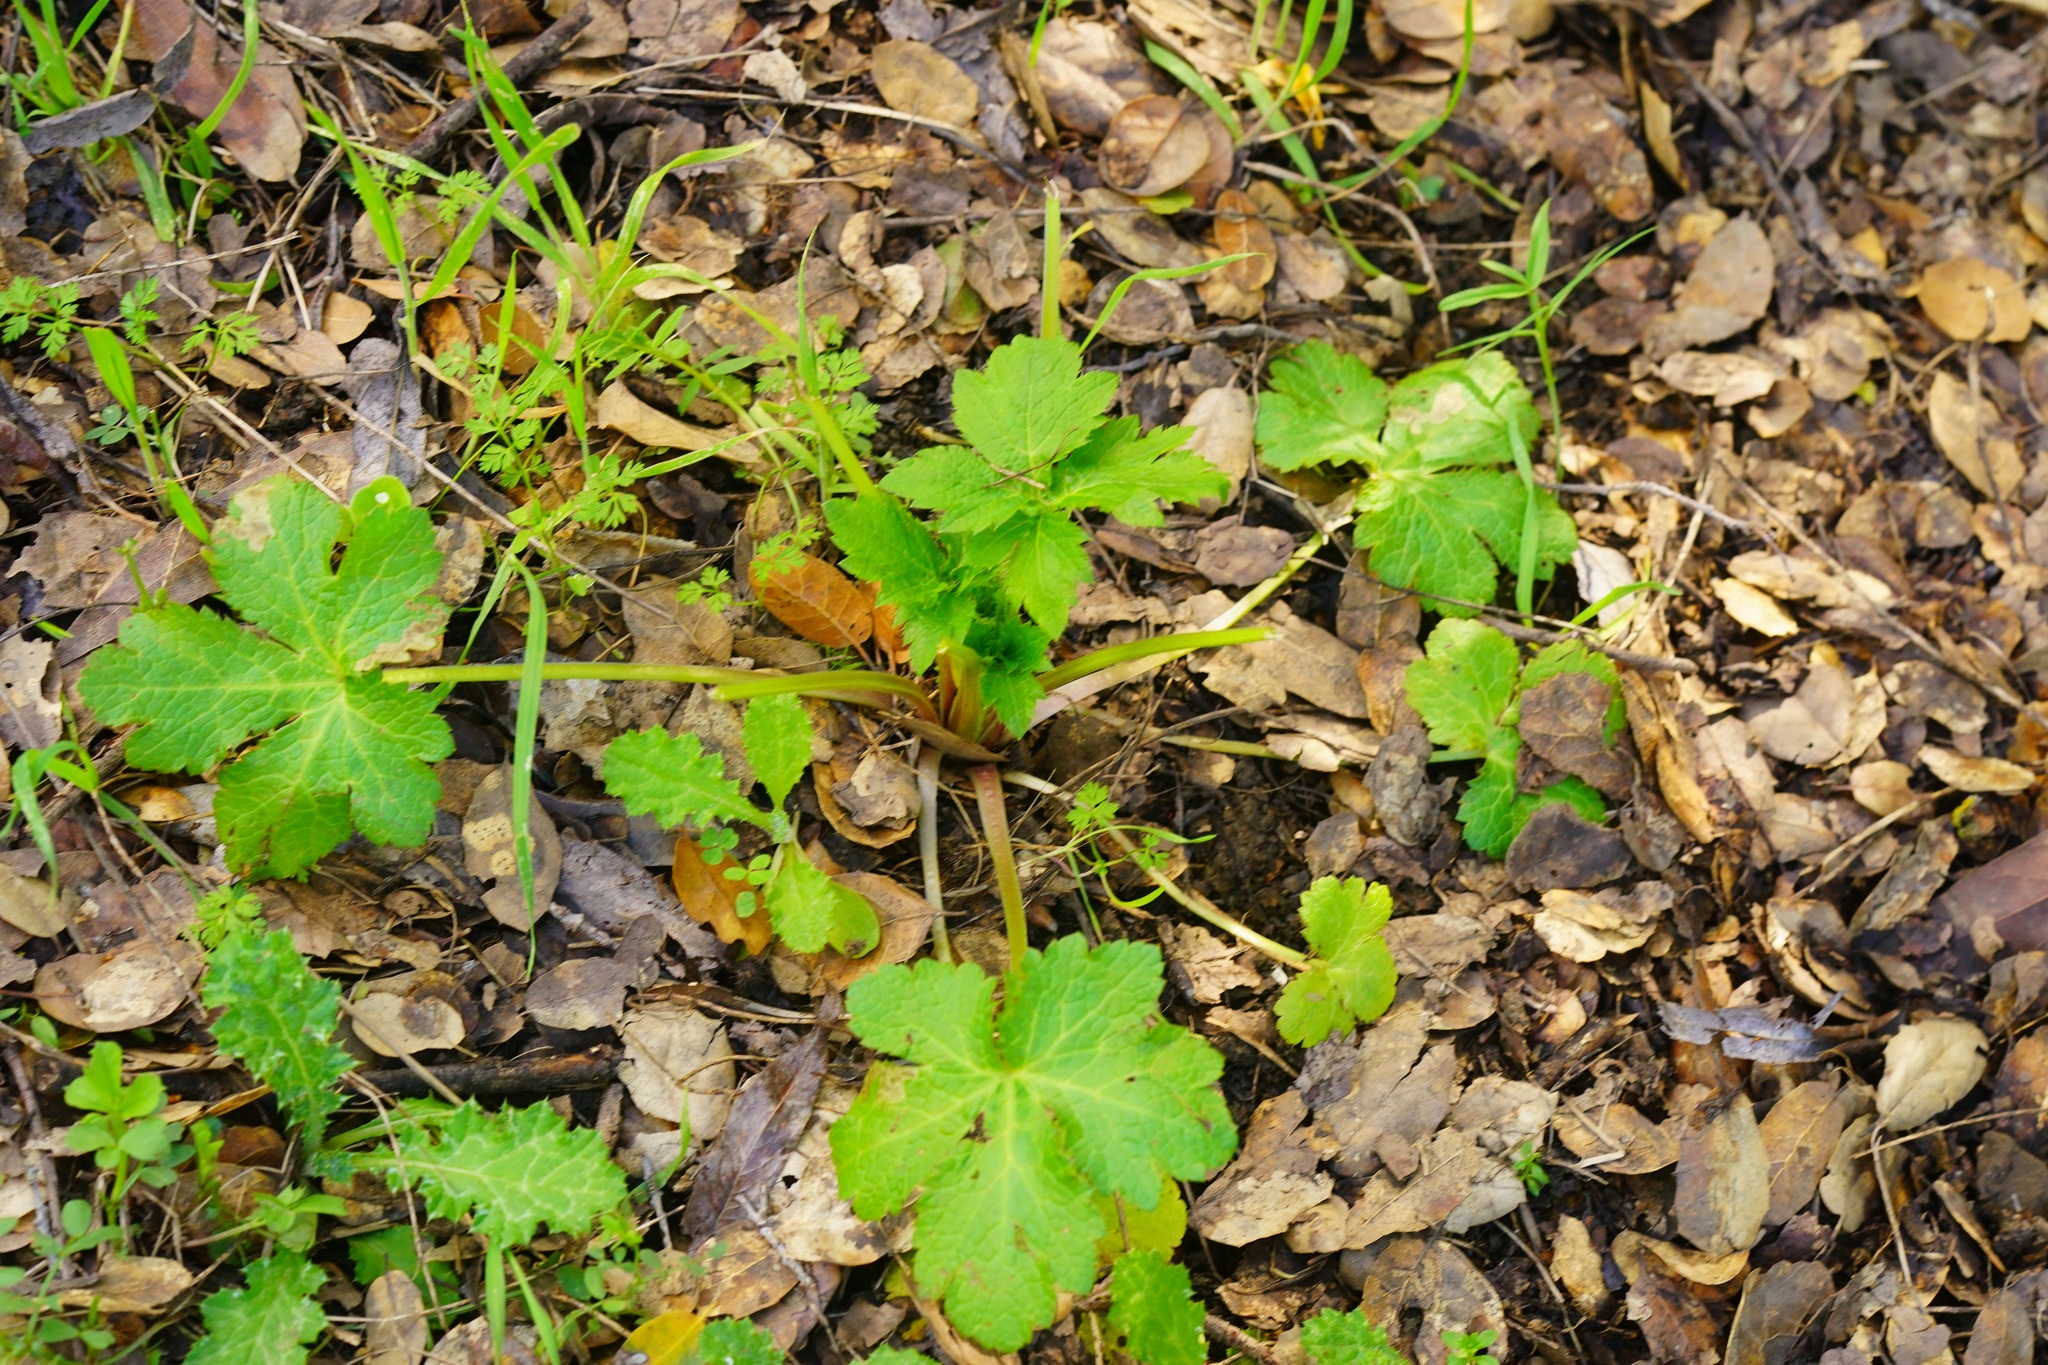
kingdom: Plantae
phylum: Tracheophyta
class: Magnoliopsida
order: Apiales
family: Apiaceae
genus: Sanicula
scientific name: Sanicula crassicaulis
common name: Western snakeroot
